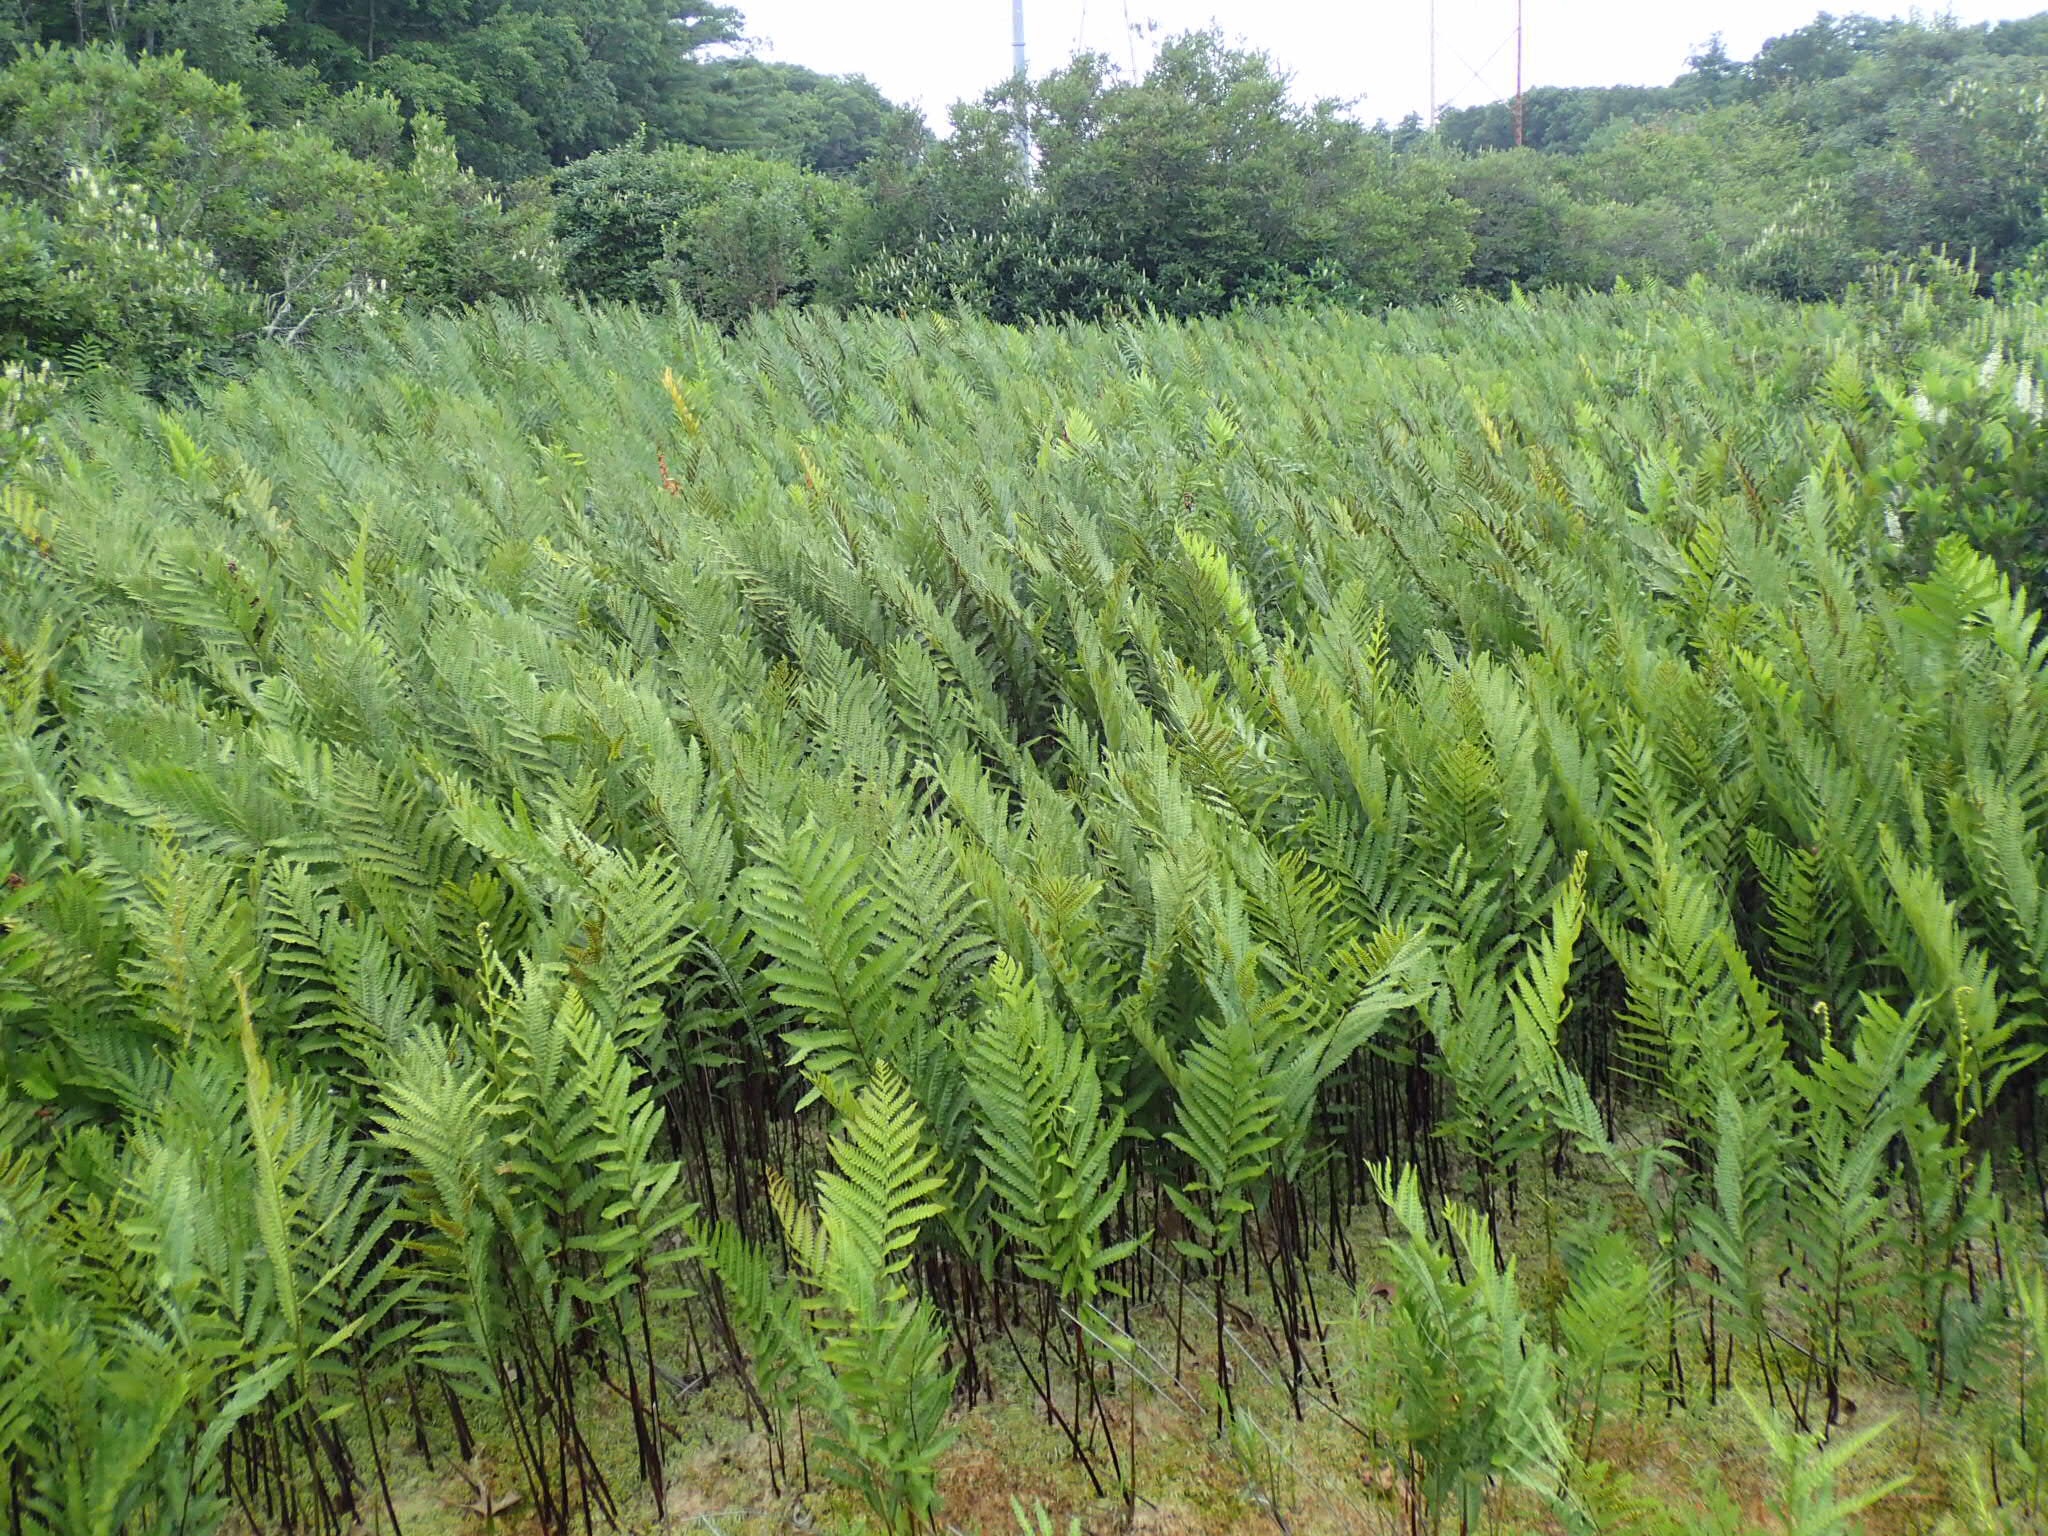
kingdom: Plantae
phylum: Tracheophyta
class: Polypodiopsida
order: Polypodiales
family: Blechnaceae
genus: Anchistea
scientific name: Anchistea virginica
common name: Virginia chain fern
